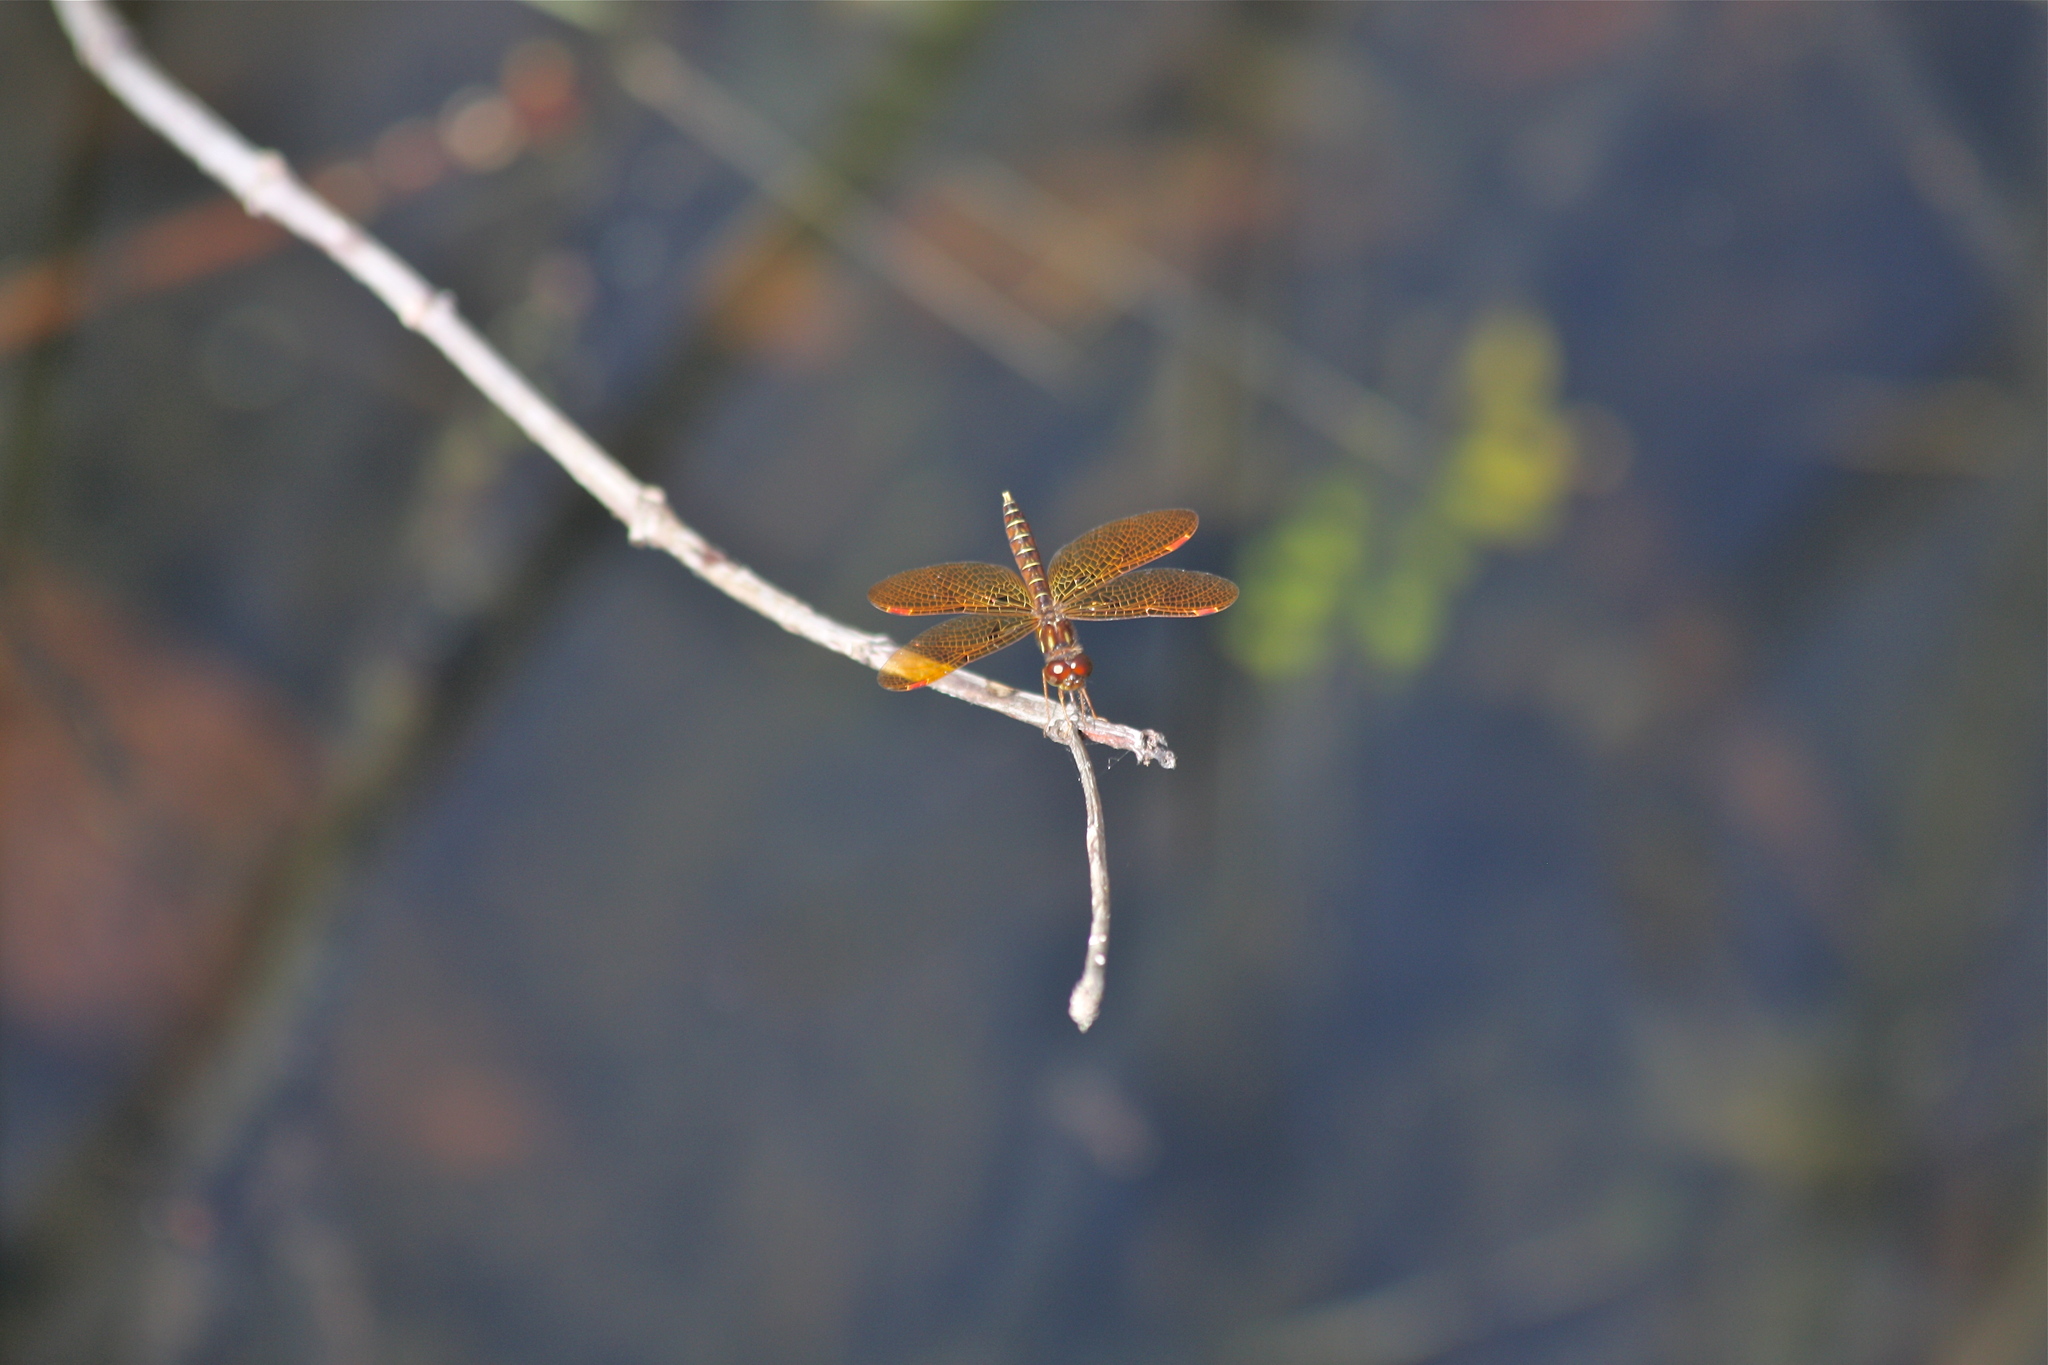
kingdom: Animalia
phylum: Arthropoda
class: Insecta
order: Odonata
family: Libellulidae
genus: Perithemis
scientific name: Perithemis tenera
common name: Eastern amberwing
